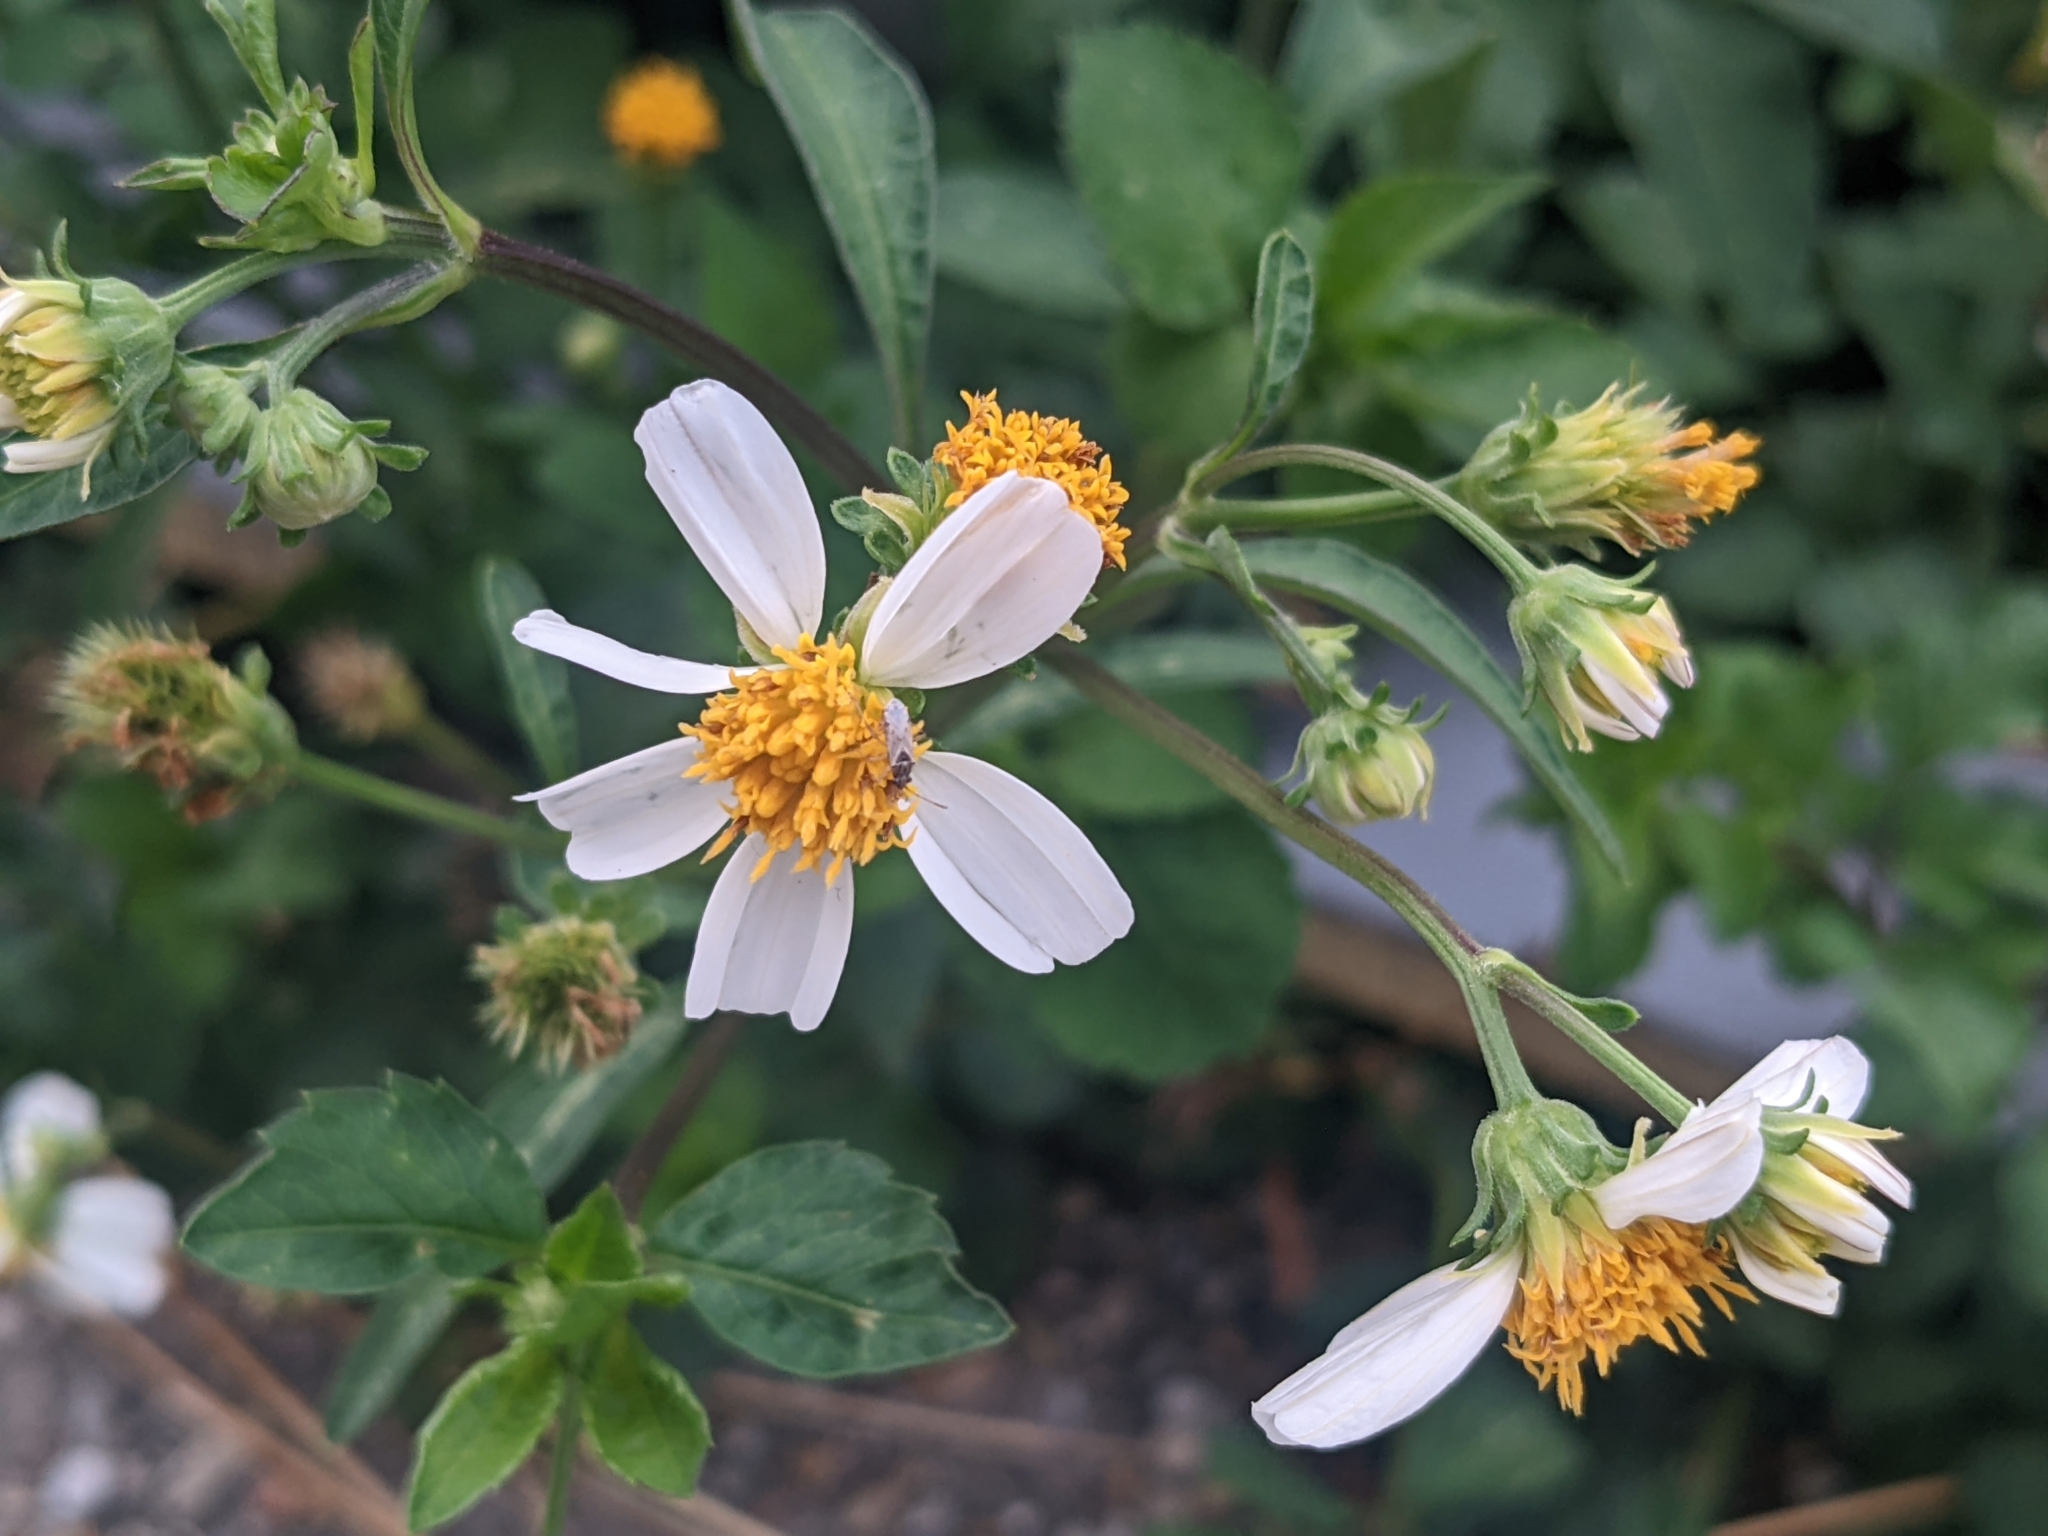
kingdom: Plantae
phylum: Tracheophyta
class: Magnoliopsida
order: Asterales
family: Asteraceae
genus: Bidens
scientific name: Bidens alba
